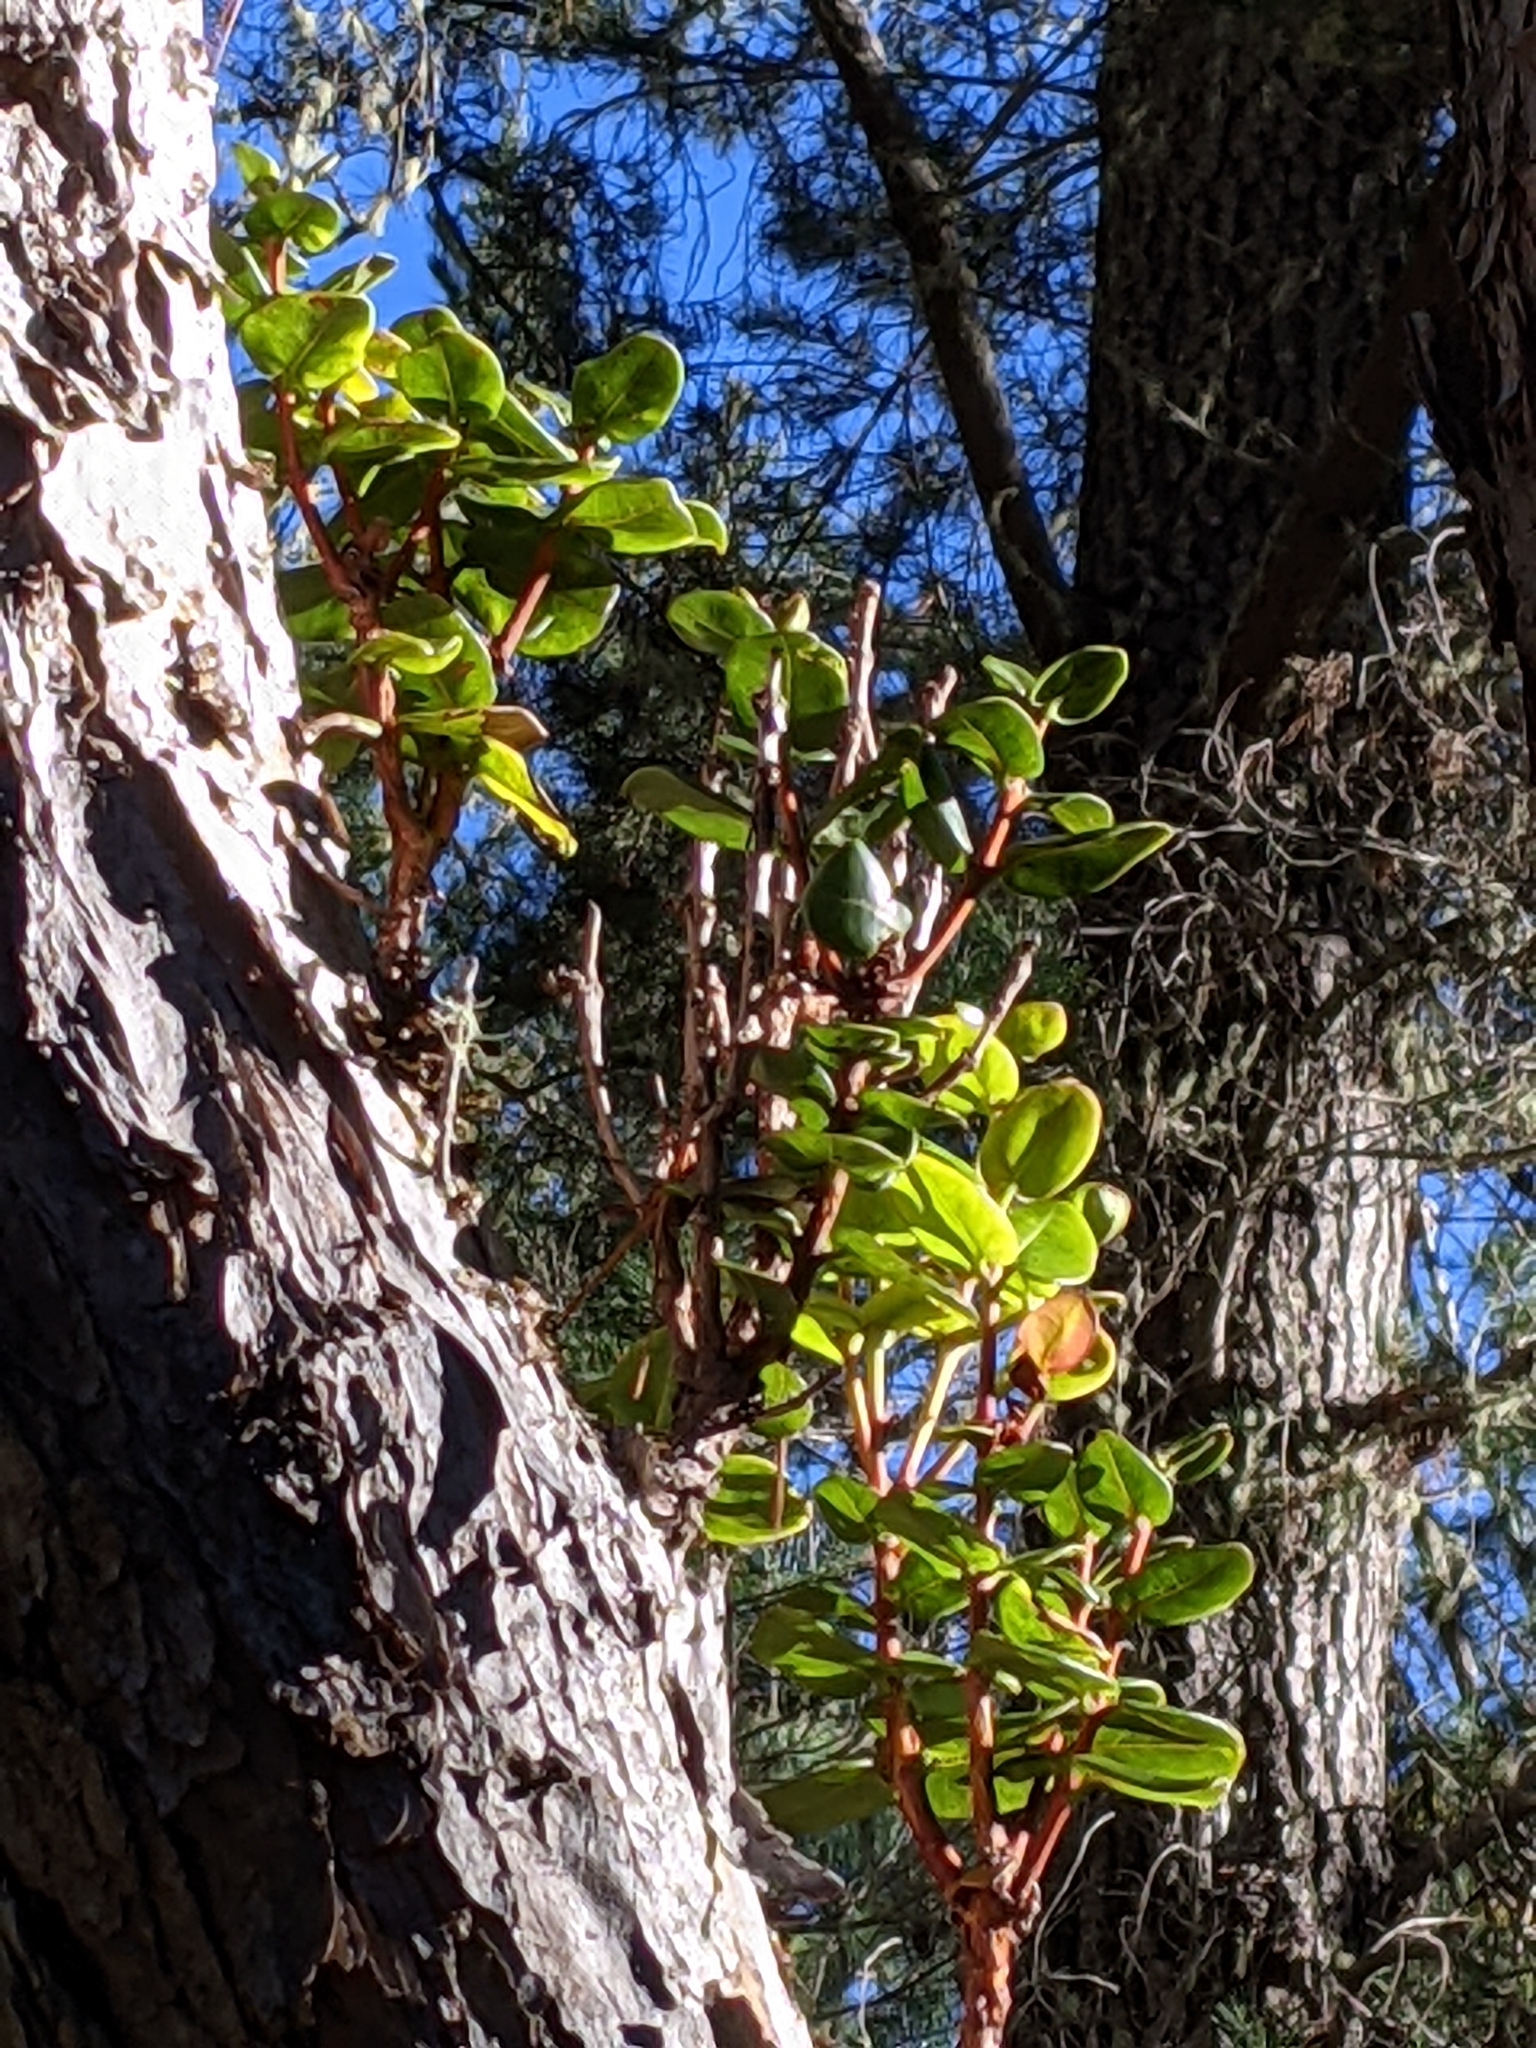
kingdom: Plantae
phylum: Tracheophyta
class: Magnoliopsida
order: Myrtales
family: Myrtaceae
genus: Metrosideros
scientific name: Metrosideros polymorpha
